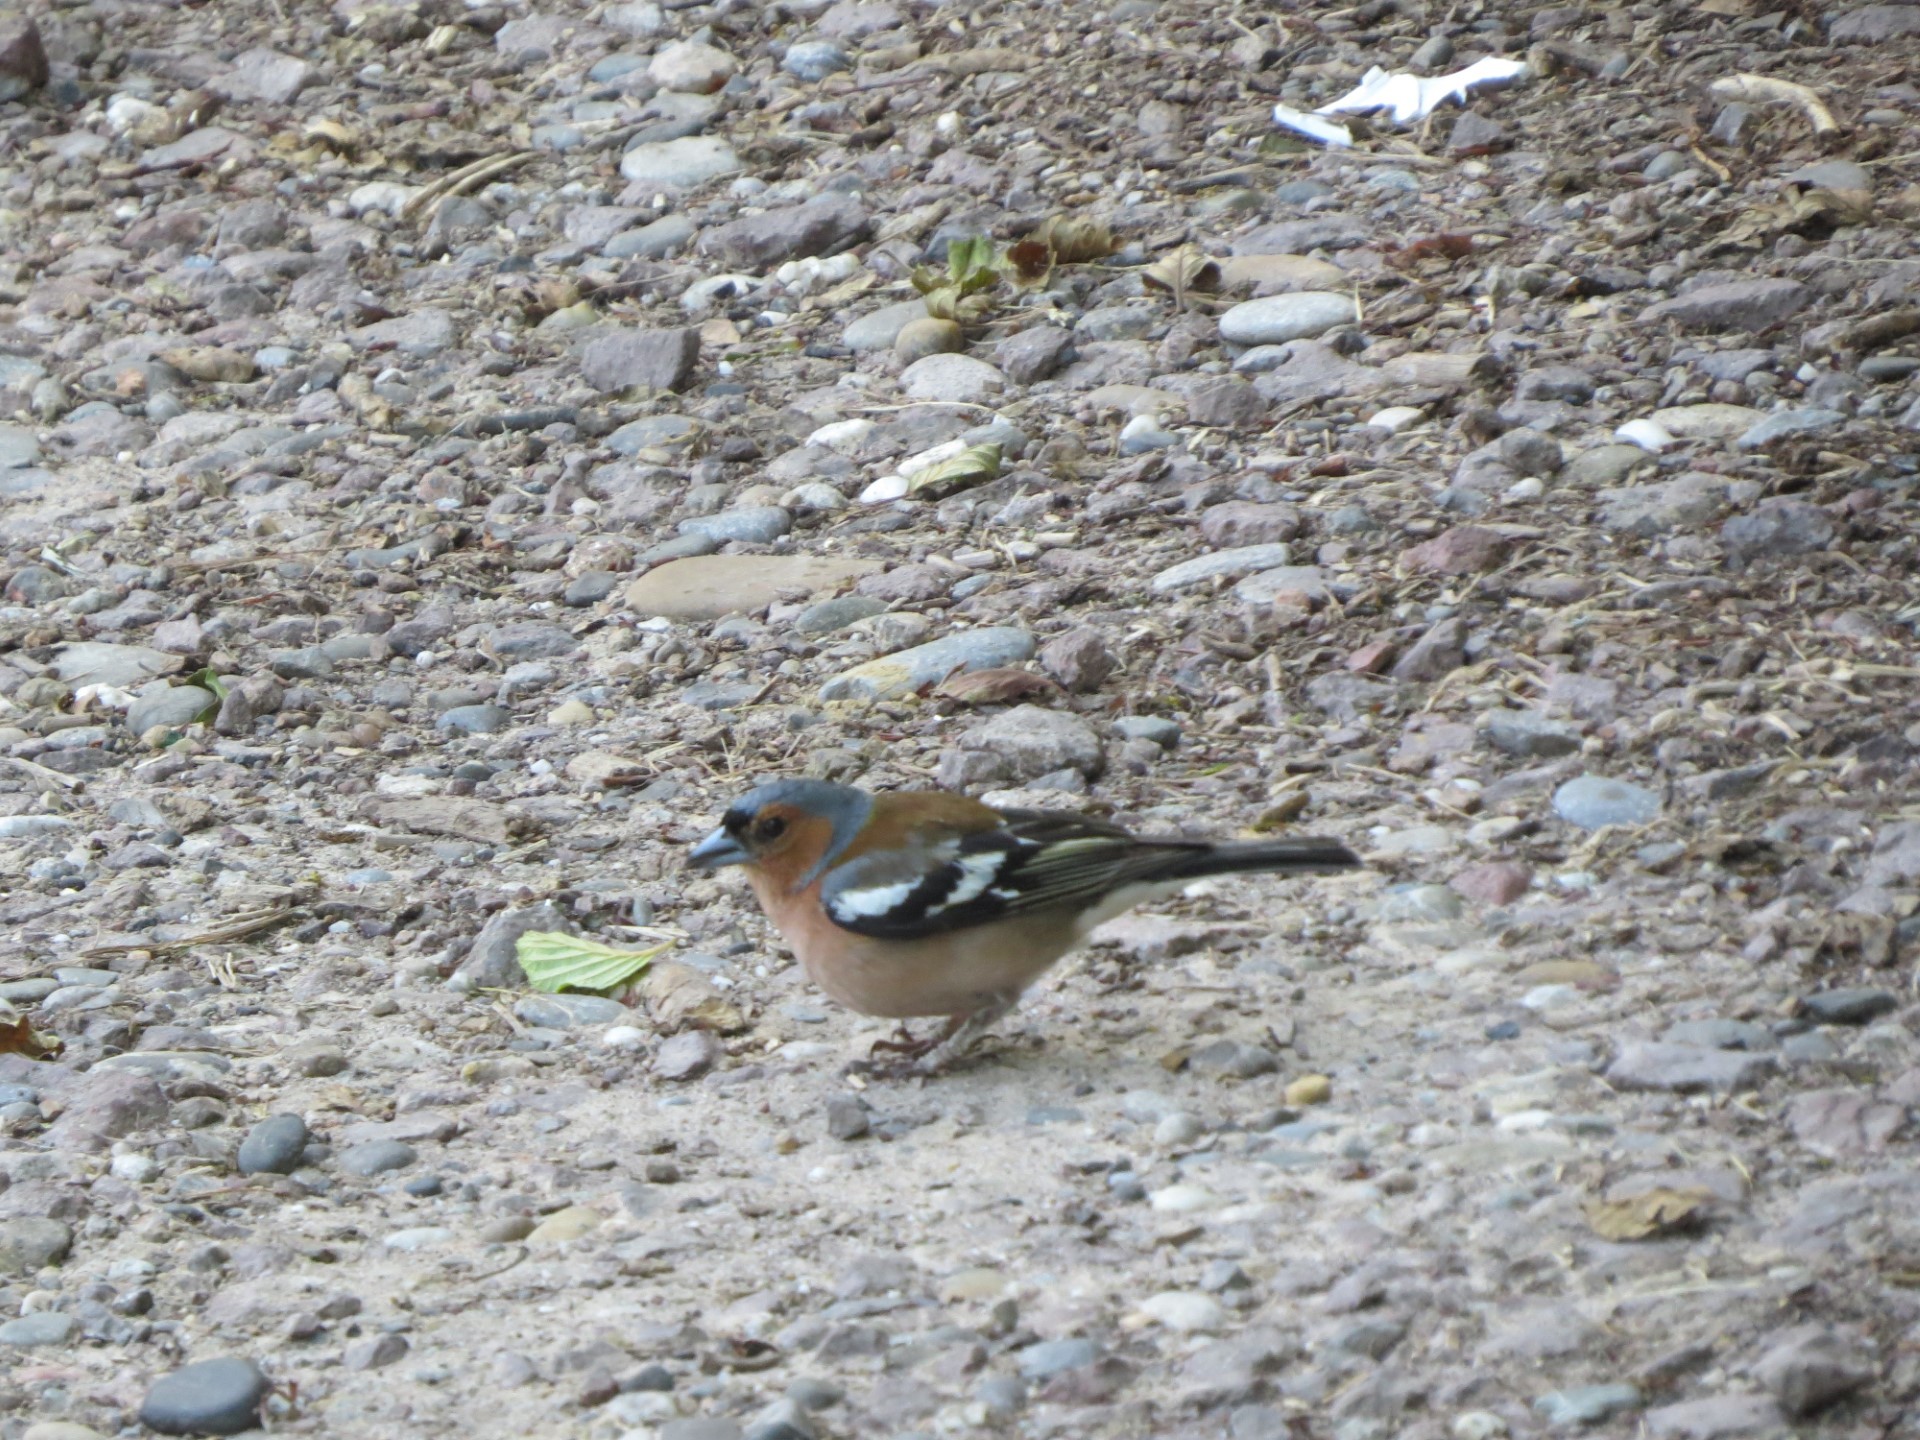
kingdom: Animalia
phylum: Chordata
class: Aves
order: Passeriformes
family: Fringillidae
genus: Fringilla
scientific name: Fringilla coelebs
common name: Common chaffinch
